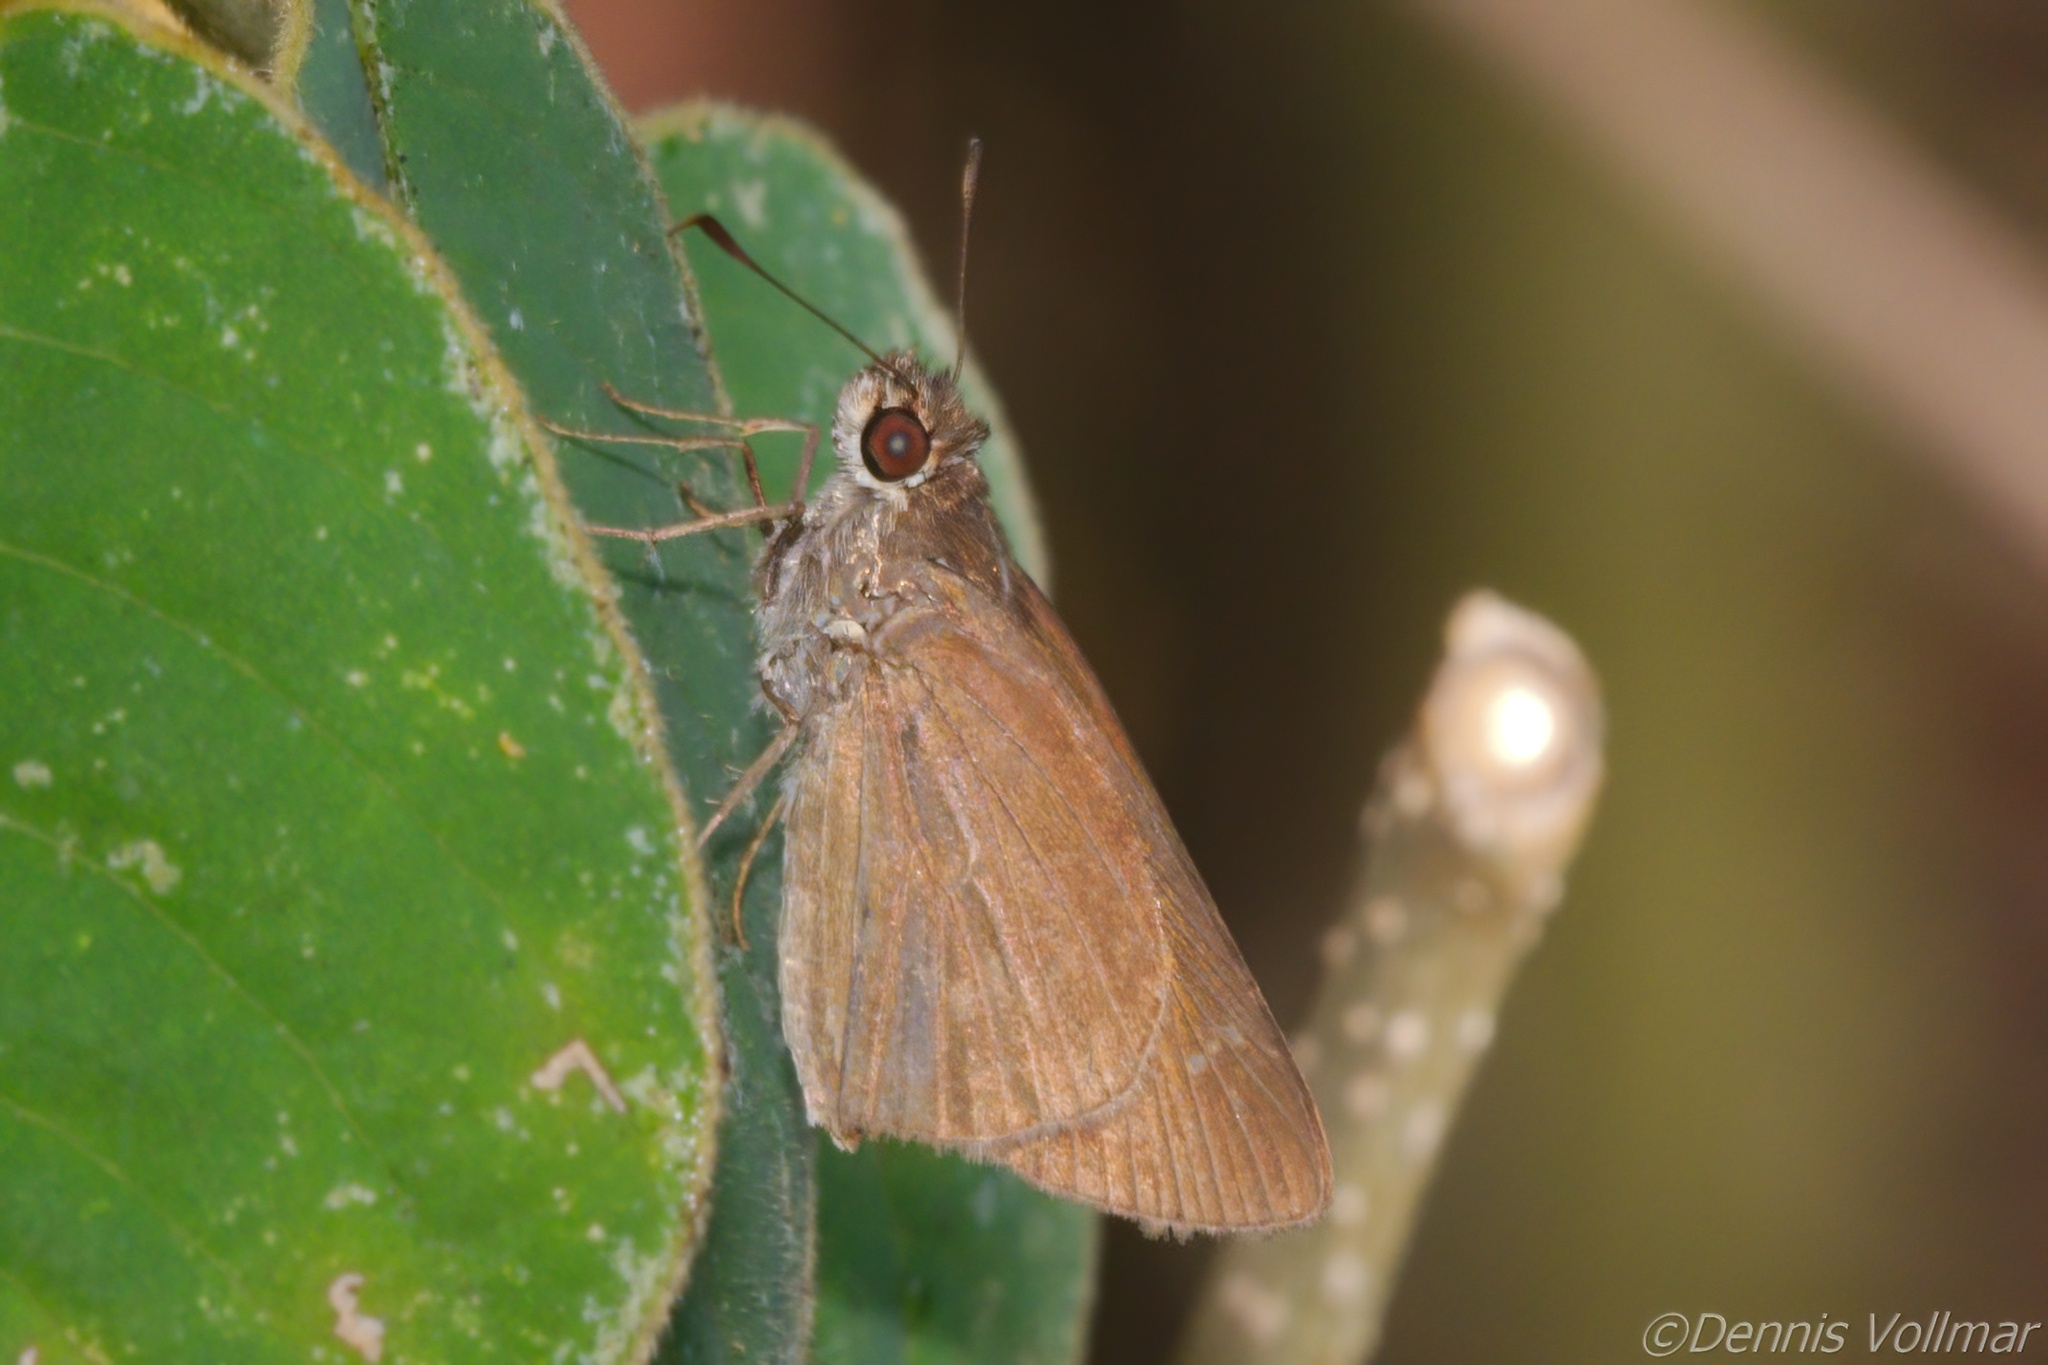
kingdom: Animalia
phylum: Arthropoda
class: Insecta
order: Lepidoptera
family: Hesperiidae
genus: Cymaenes
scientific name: Cymaenes tripunctus
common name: Dingy dotted skipper
